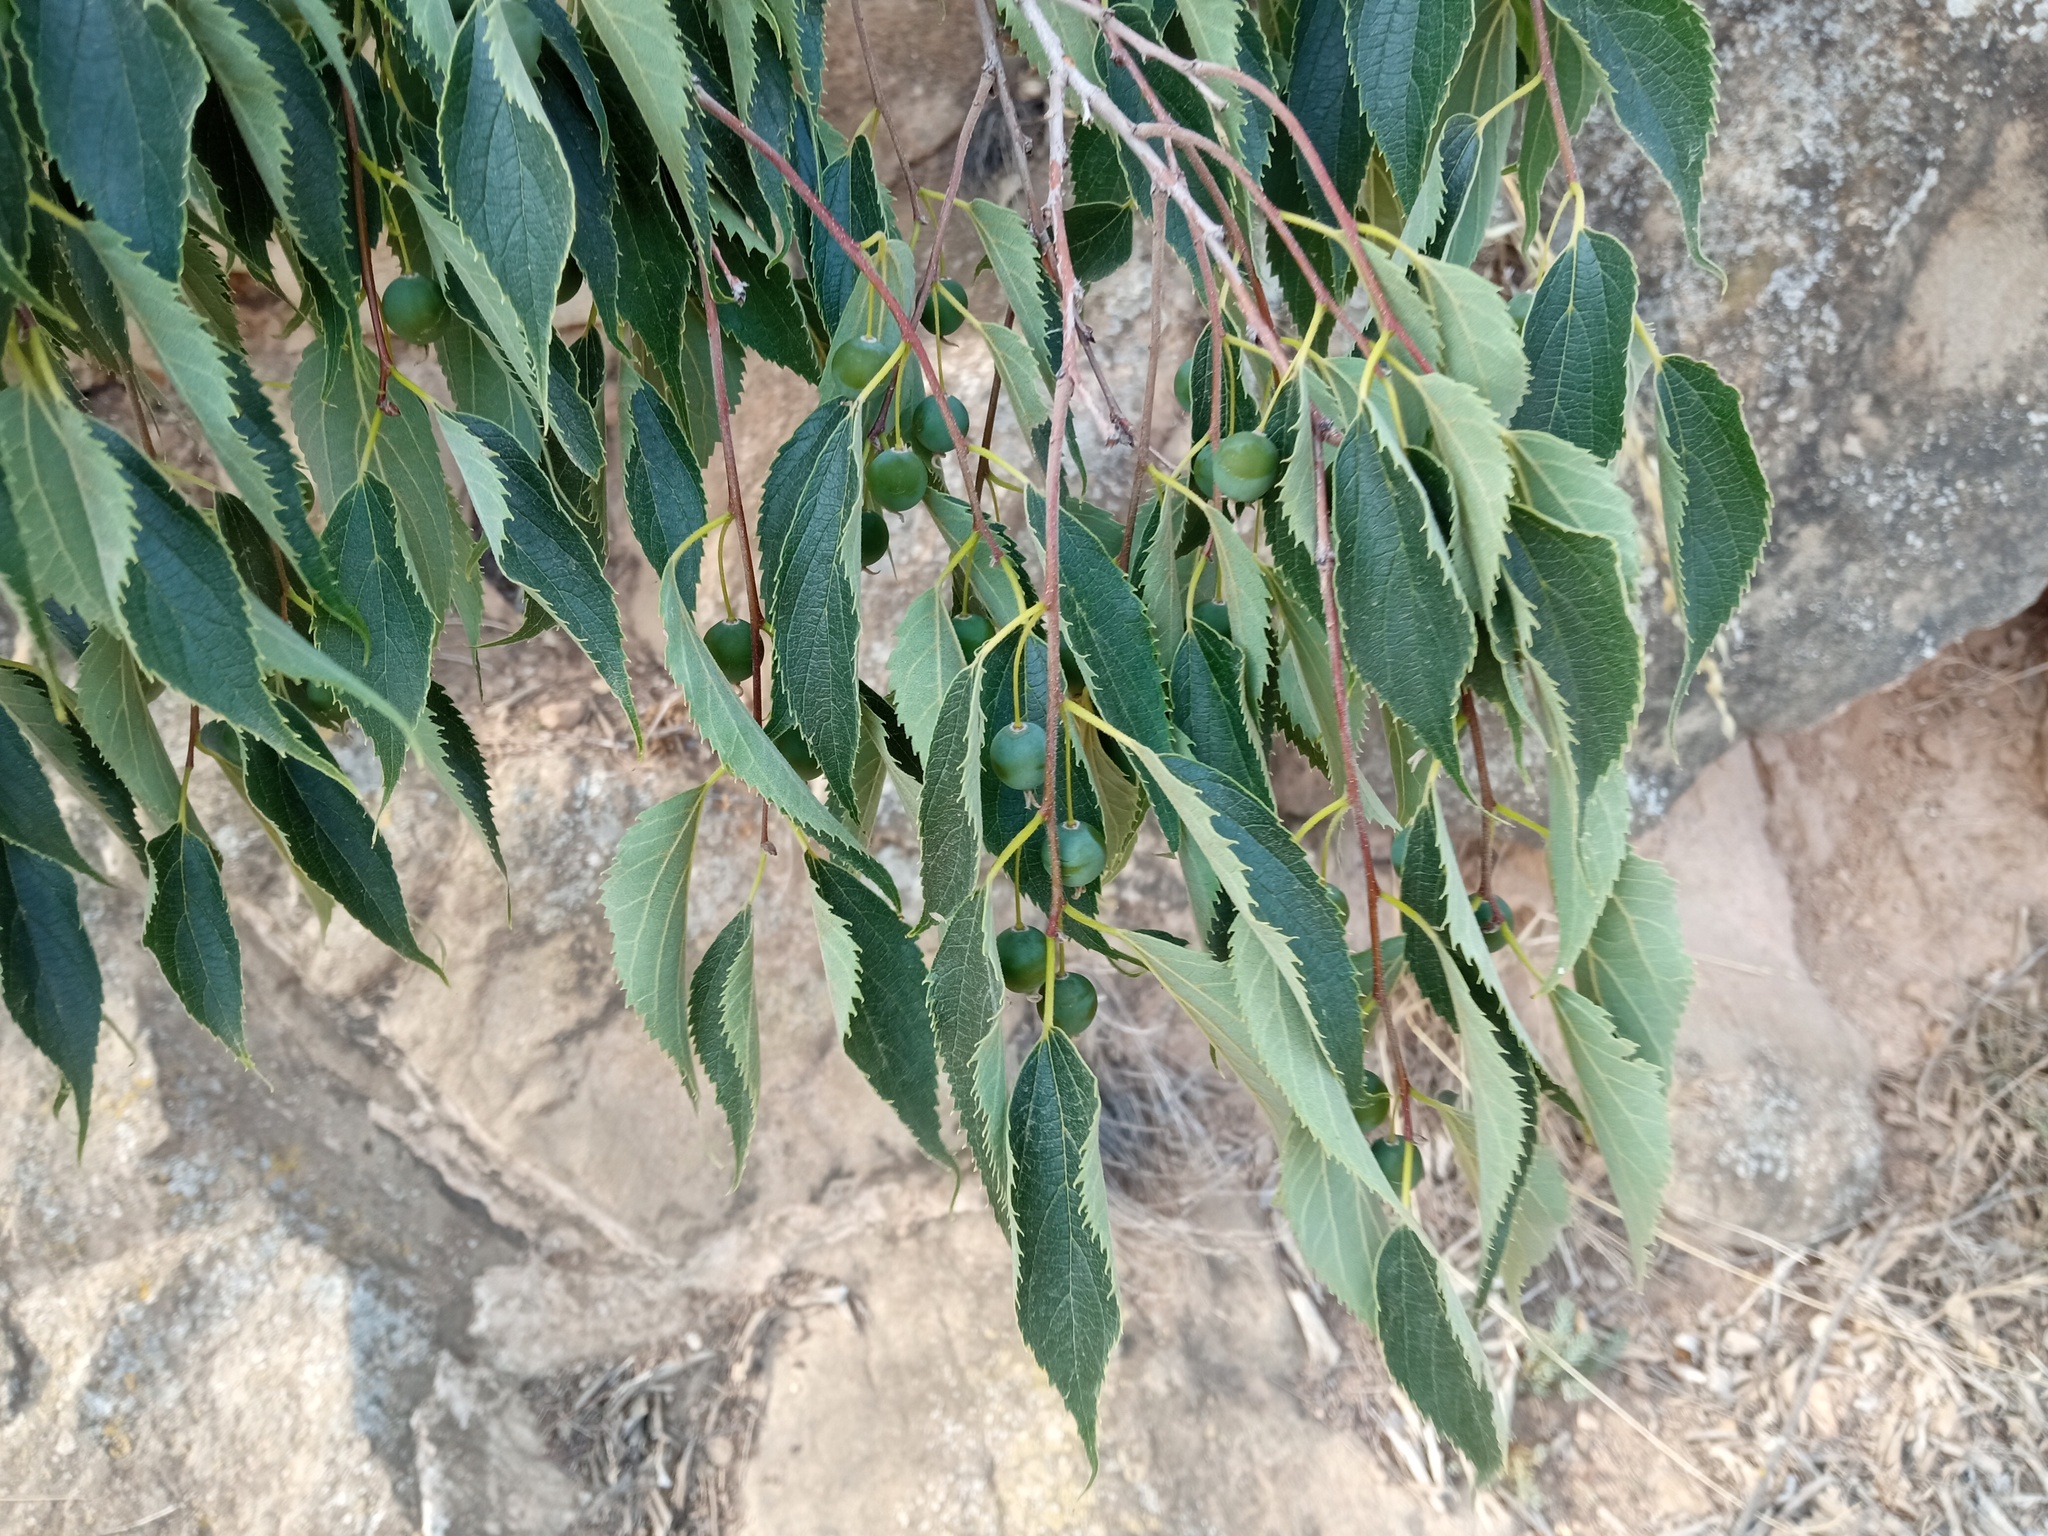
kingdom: Plantae
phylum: Tracheophyta
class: Magnoliopsida
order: Rosales
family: Cannabaceae
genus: Celtis
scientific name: Celtis australis
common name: European hackberry
